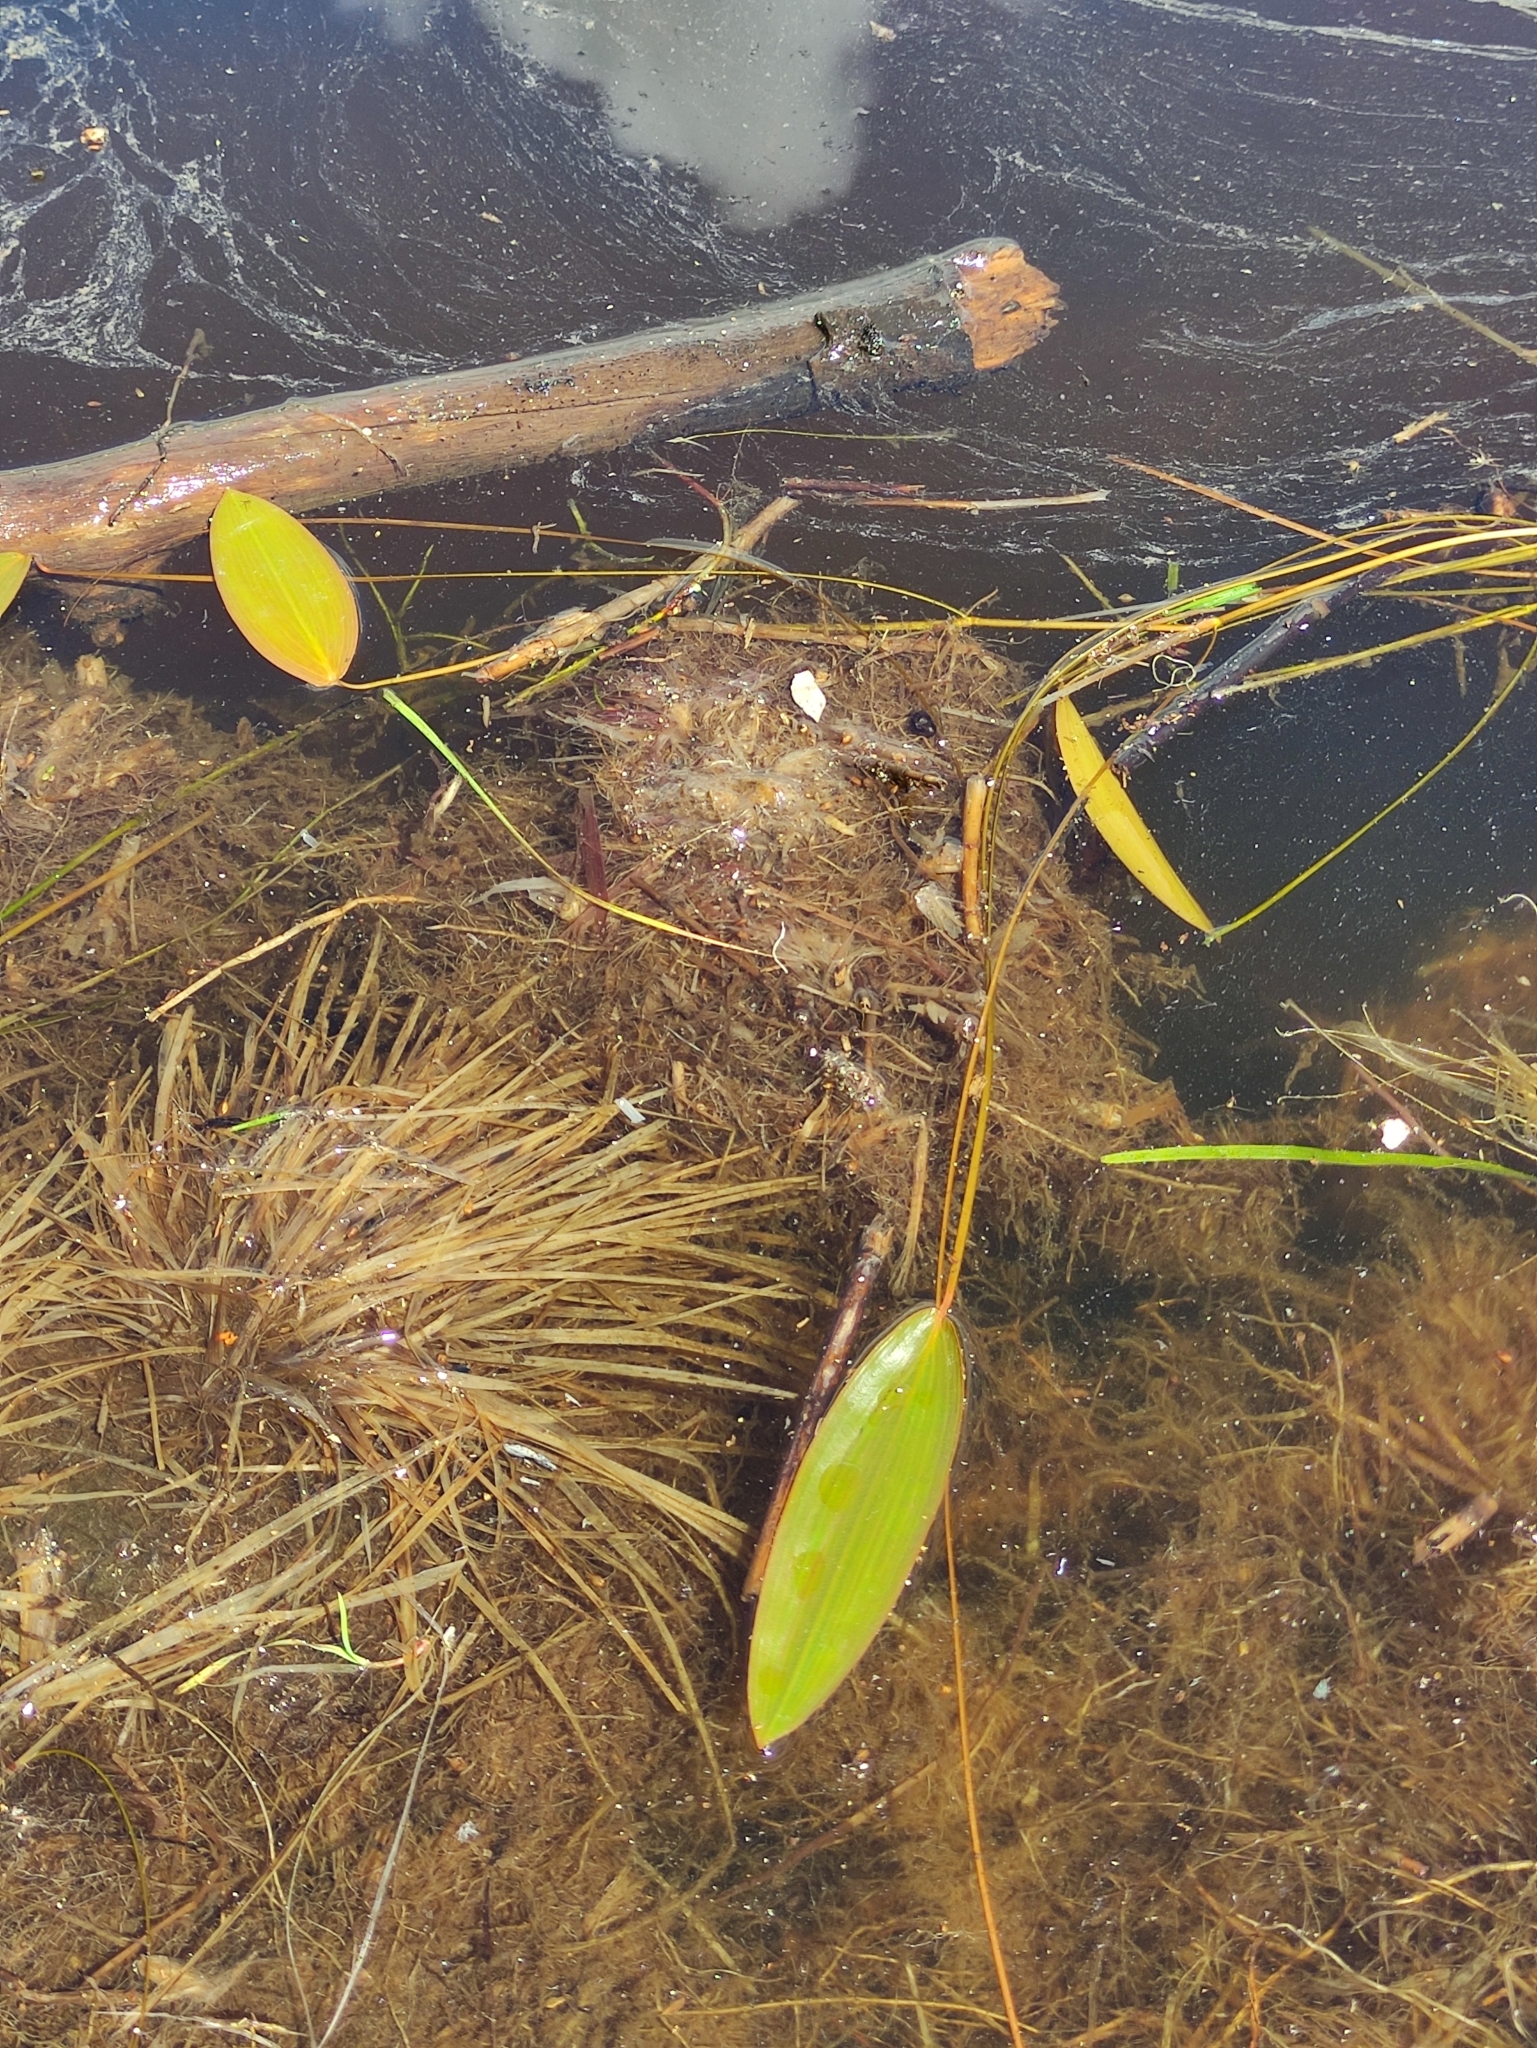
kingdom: Plantae
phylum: Tracheophyta
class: Liliopsida
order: Alismatales
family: Potamogetonaceae
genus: Potamogeton
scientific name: Potamogeton natans
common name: Broad-leaved pondweed
